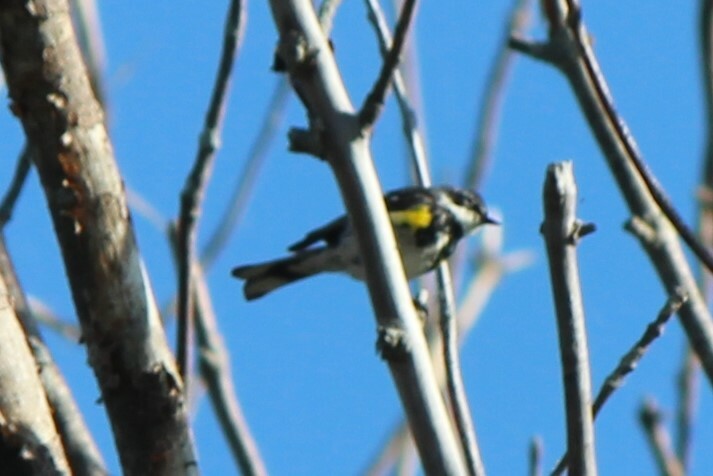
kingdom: Animalia
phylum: Chordata
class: Aves
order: Passeriformes
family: Parulidae
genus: Setophaga
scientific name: Setophaga coronata
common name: Myrtle warbler
